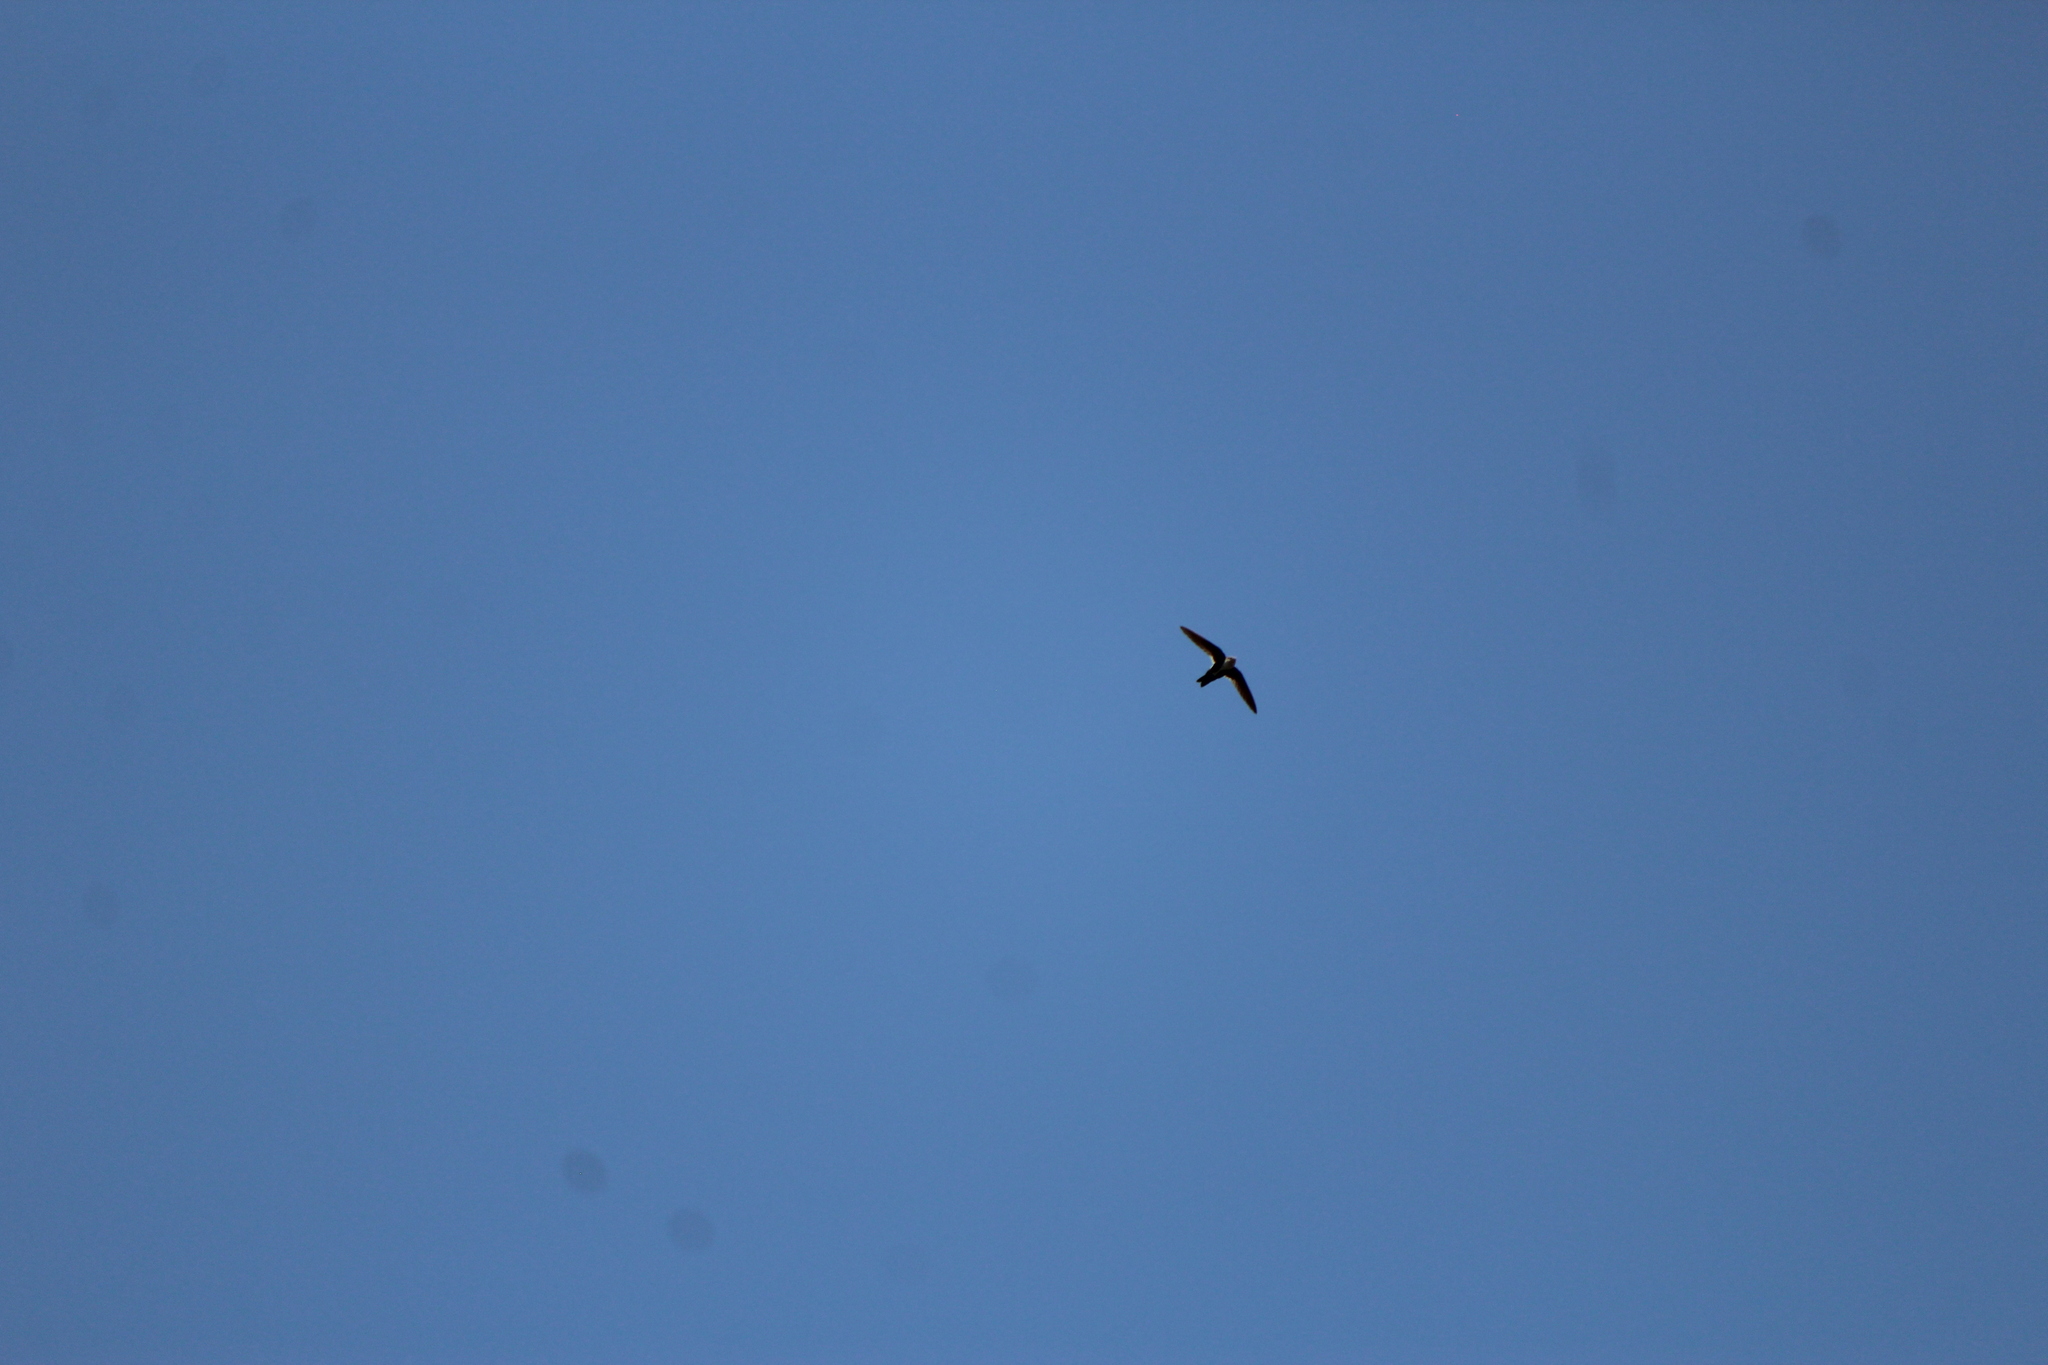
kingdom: Animalia
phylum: Chordata
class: Aves
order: Apodiformes
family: Apodidae
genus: Aeronautes
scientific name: Aeronautes saxatalis
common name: White-throated swift
